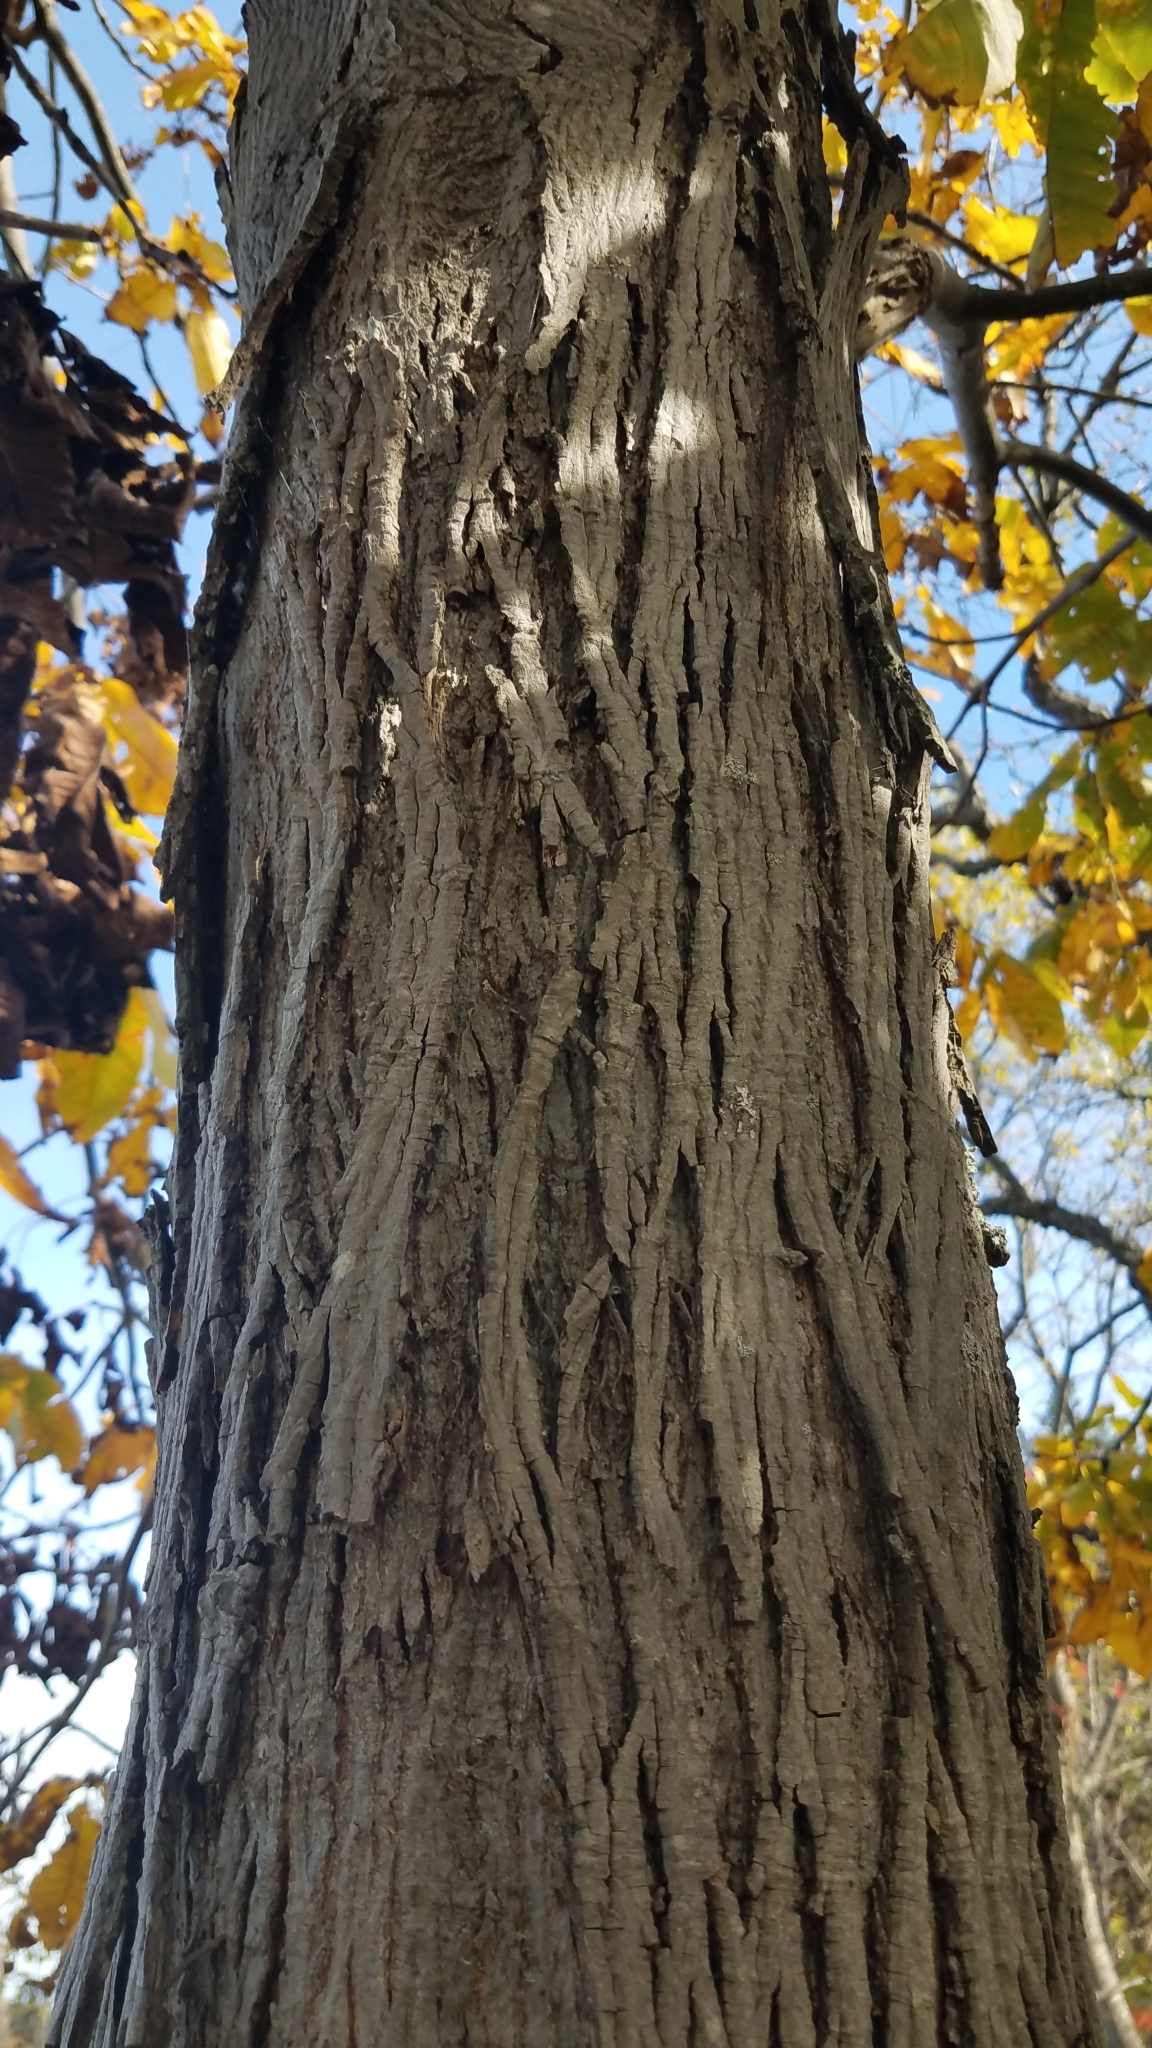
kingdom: Plantae
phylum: Tracheophyta
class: Magnoliopsida
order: Fagales
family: Juglandaceae
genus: Carya
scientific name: Carya ovata
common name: Shagbark hickory
